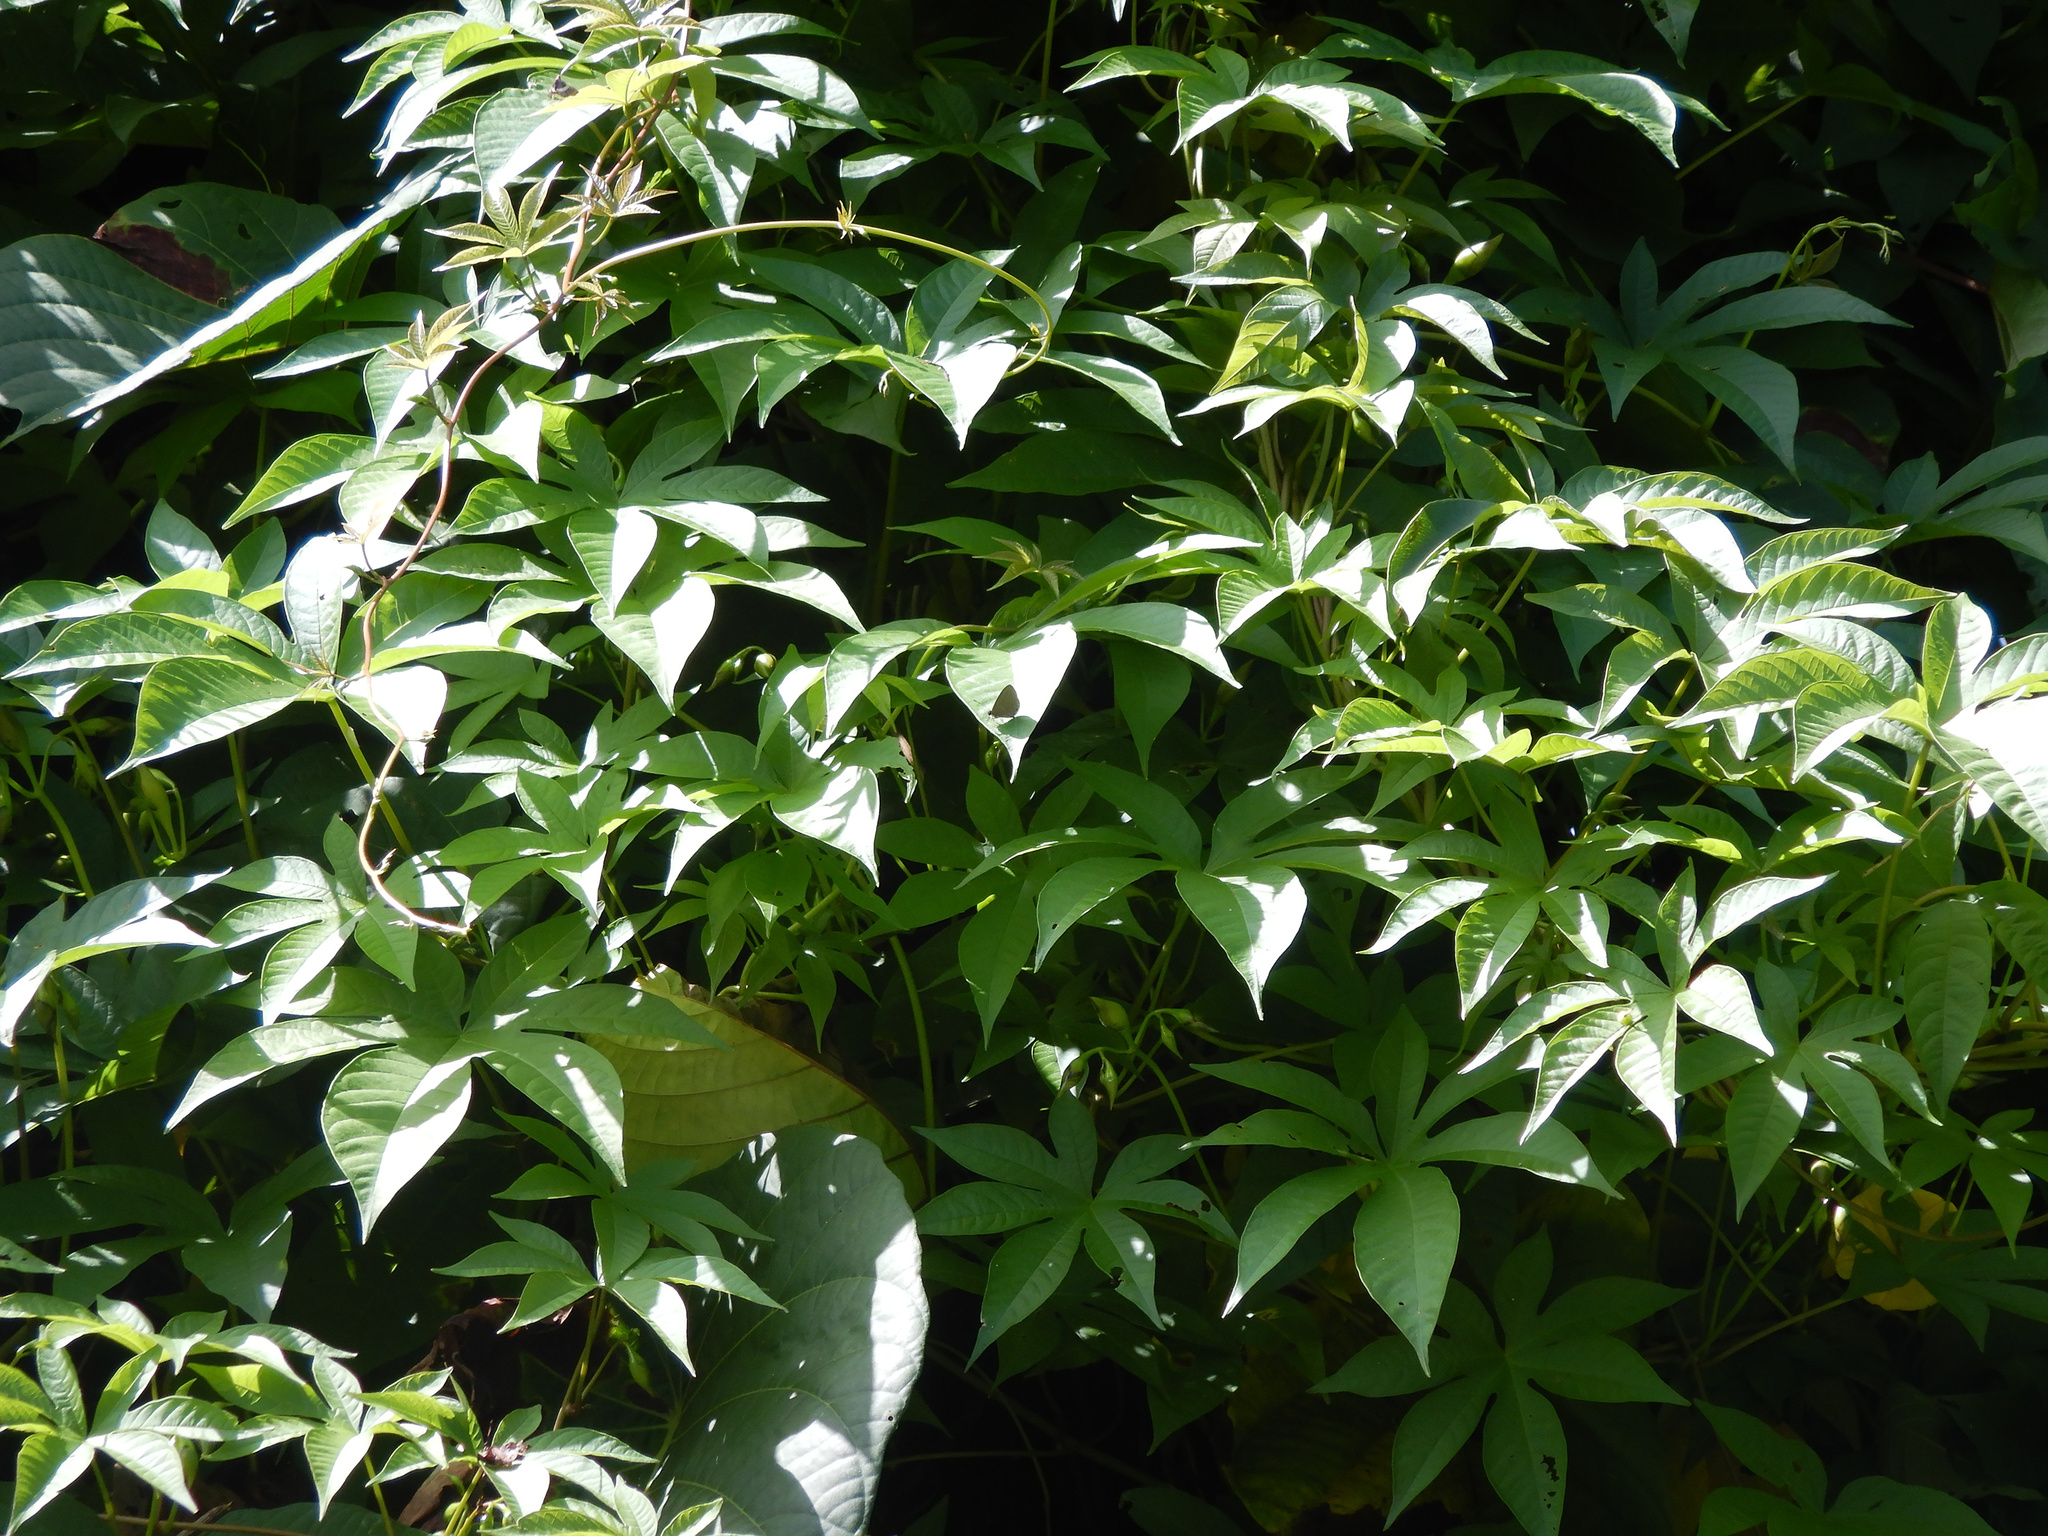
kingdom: Plantae
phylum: Tracheophyta
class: Magnoliopsida
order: Solanales
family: Convolvulaceae
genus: Distimake
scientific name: Distimake tuberosus
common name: Spanish arborvine
